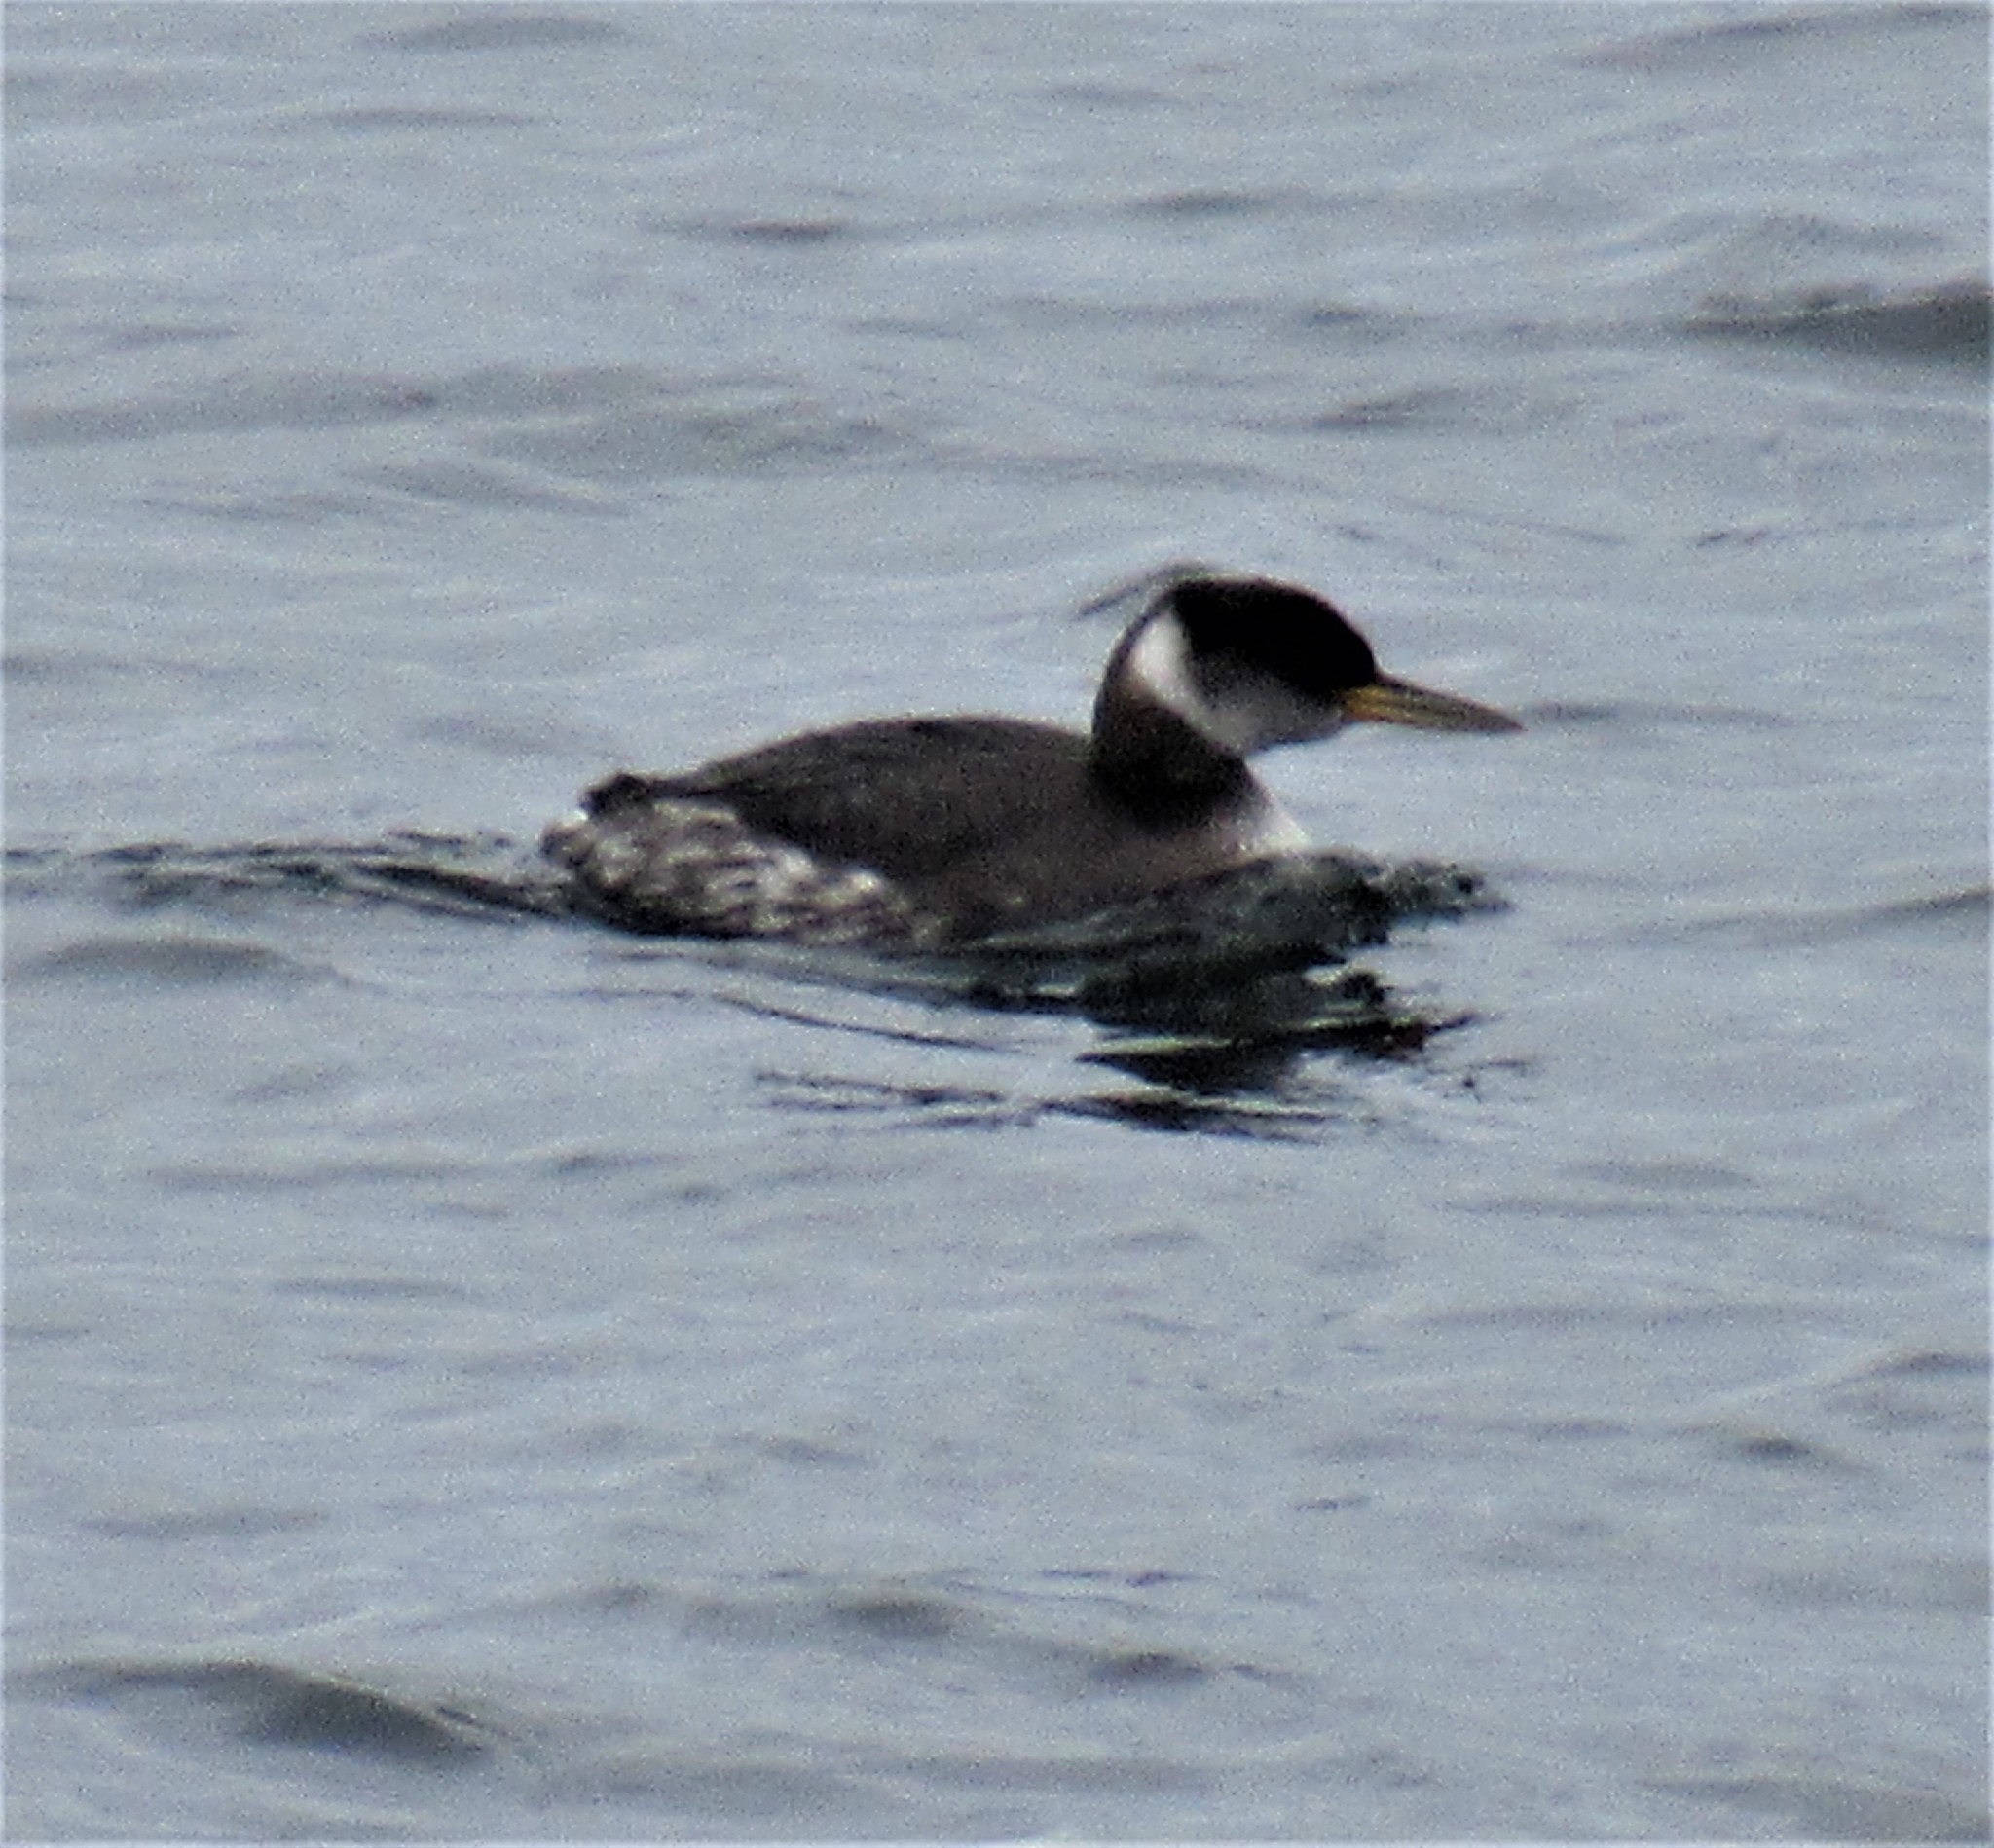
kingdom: Animalia
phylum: Chordata
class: Aves
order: Podicipediformes
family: Podicipedidae
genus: Podiceps
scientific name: Podiceps grisegena
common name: Red-necked grebe
